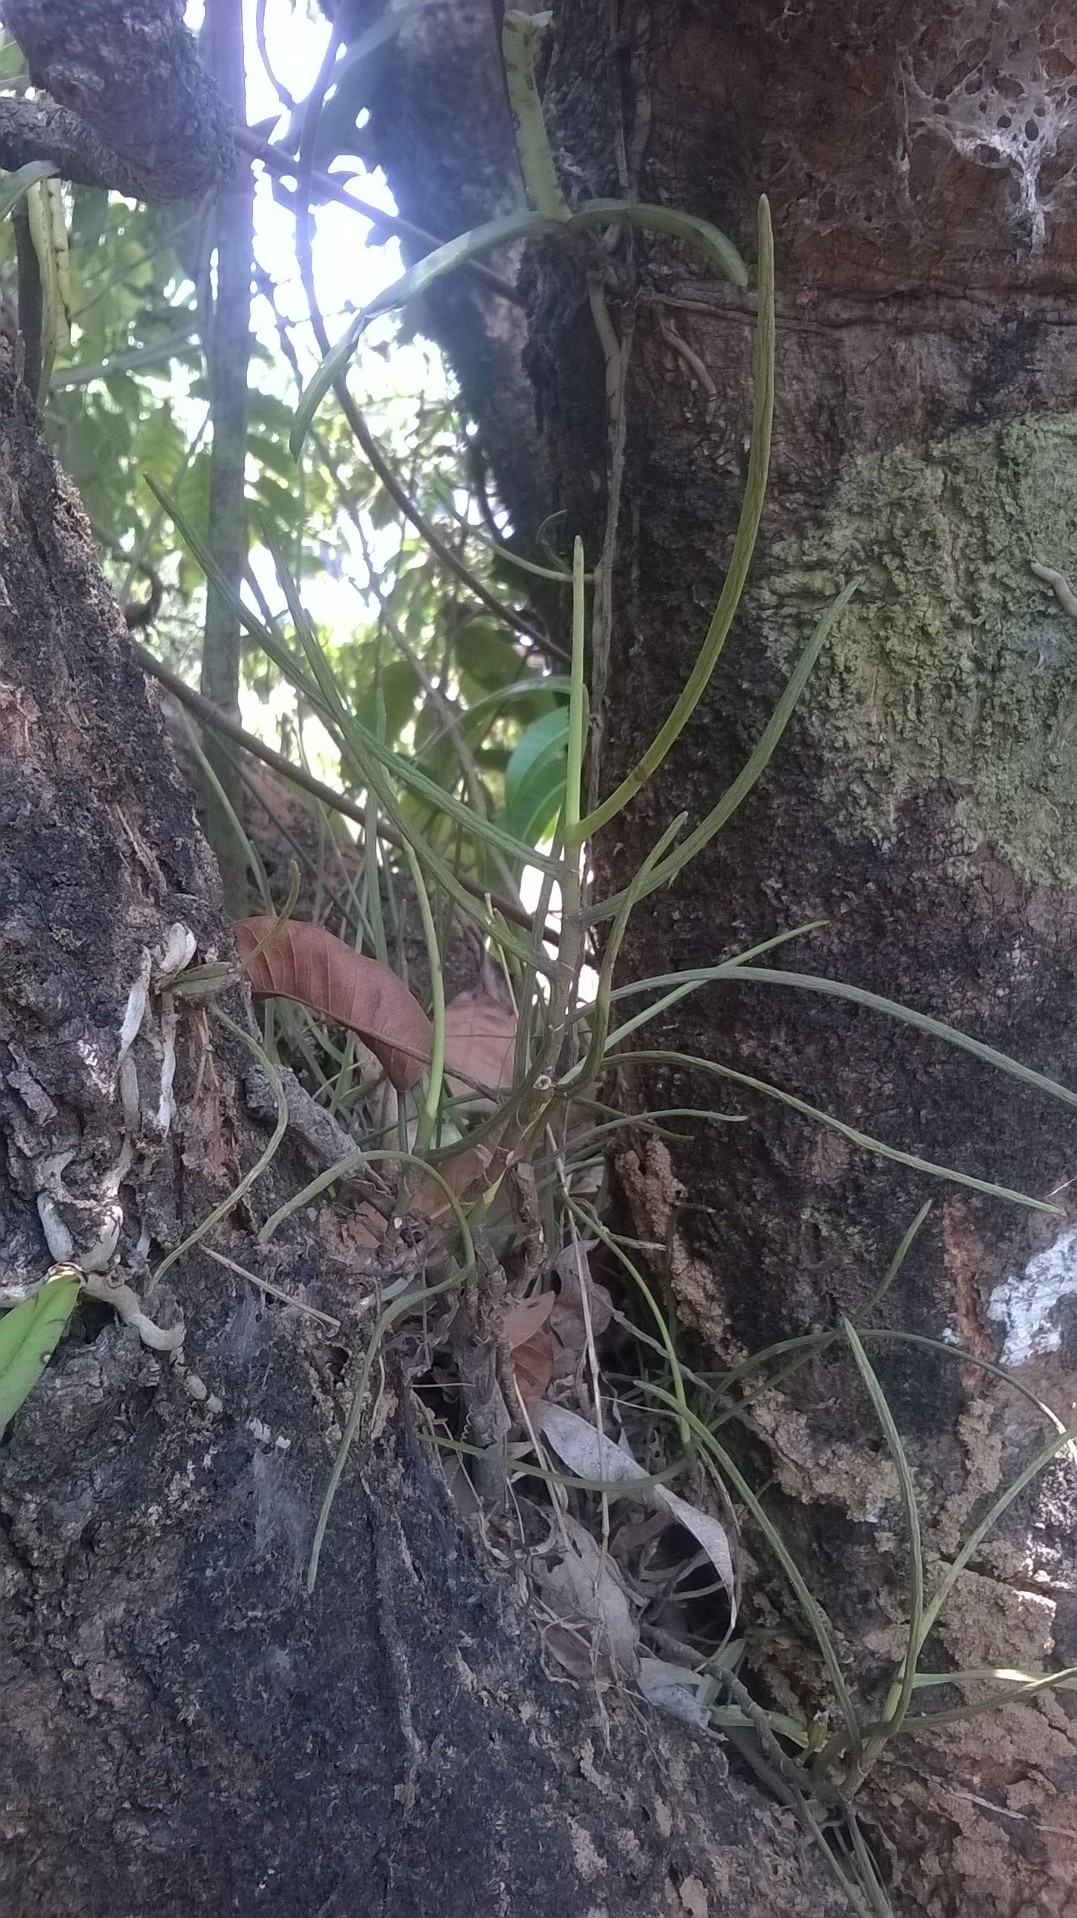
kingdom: Plantae
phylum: Tracheophyta
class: Liliopsida
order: Asparagales
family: Orchidaceae
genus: Luisia
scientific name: Luisia tristis
